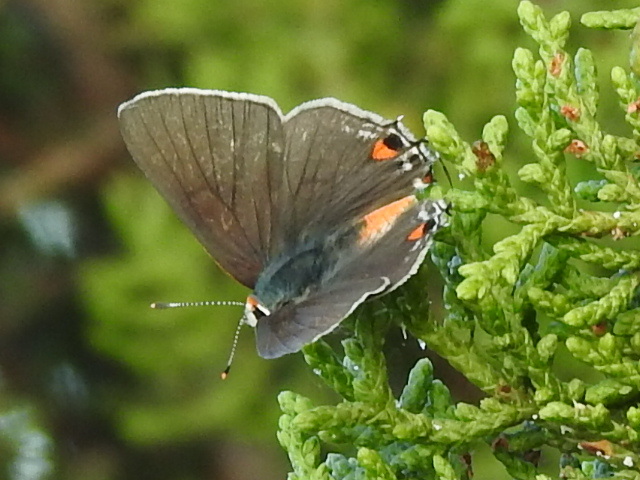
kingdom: Animalia
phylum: Arthropoda
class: Insecta
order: Lepidoptera
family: Lycaenidae
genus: Strymon
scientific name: Strymon melinus
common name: Gray hairstreak
